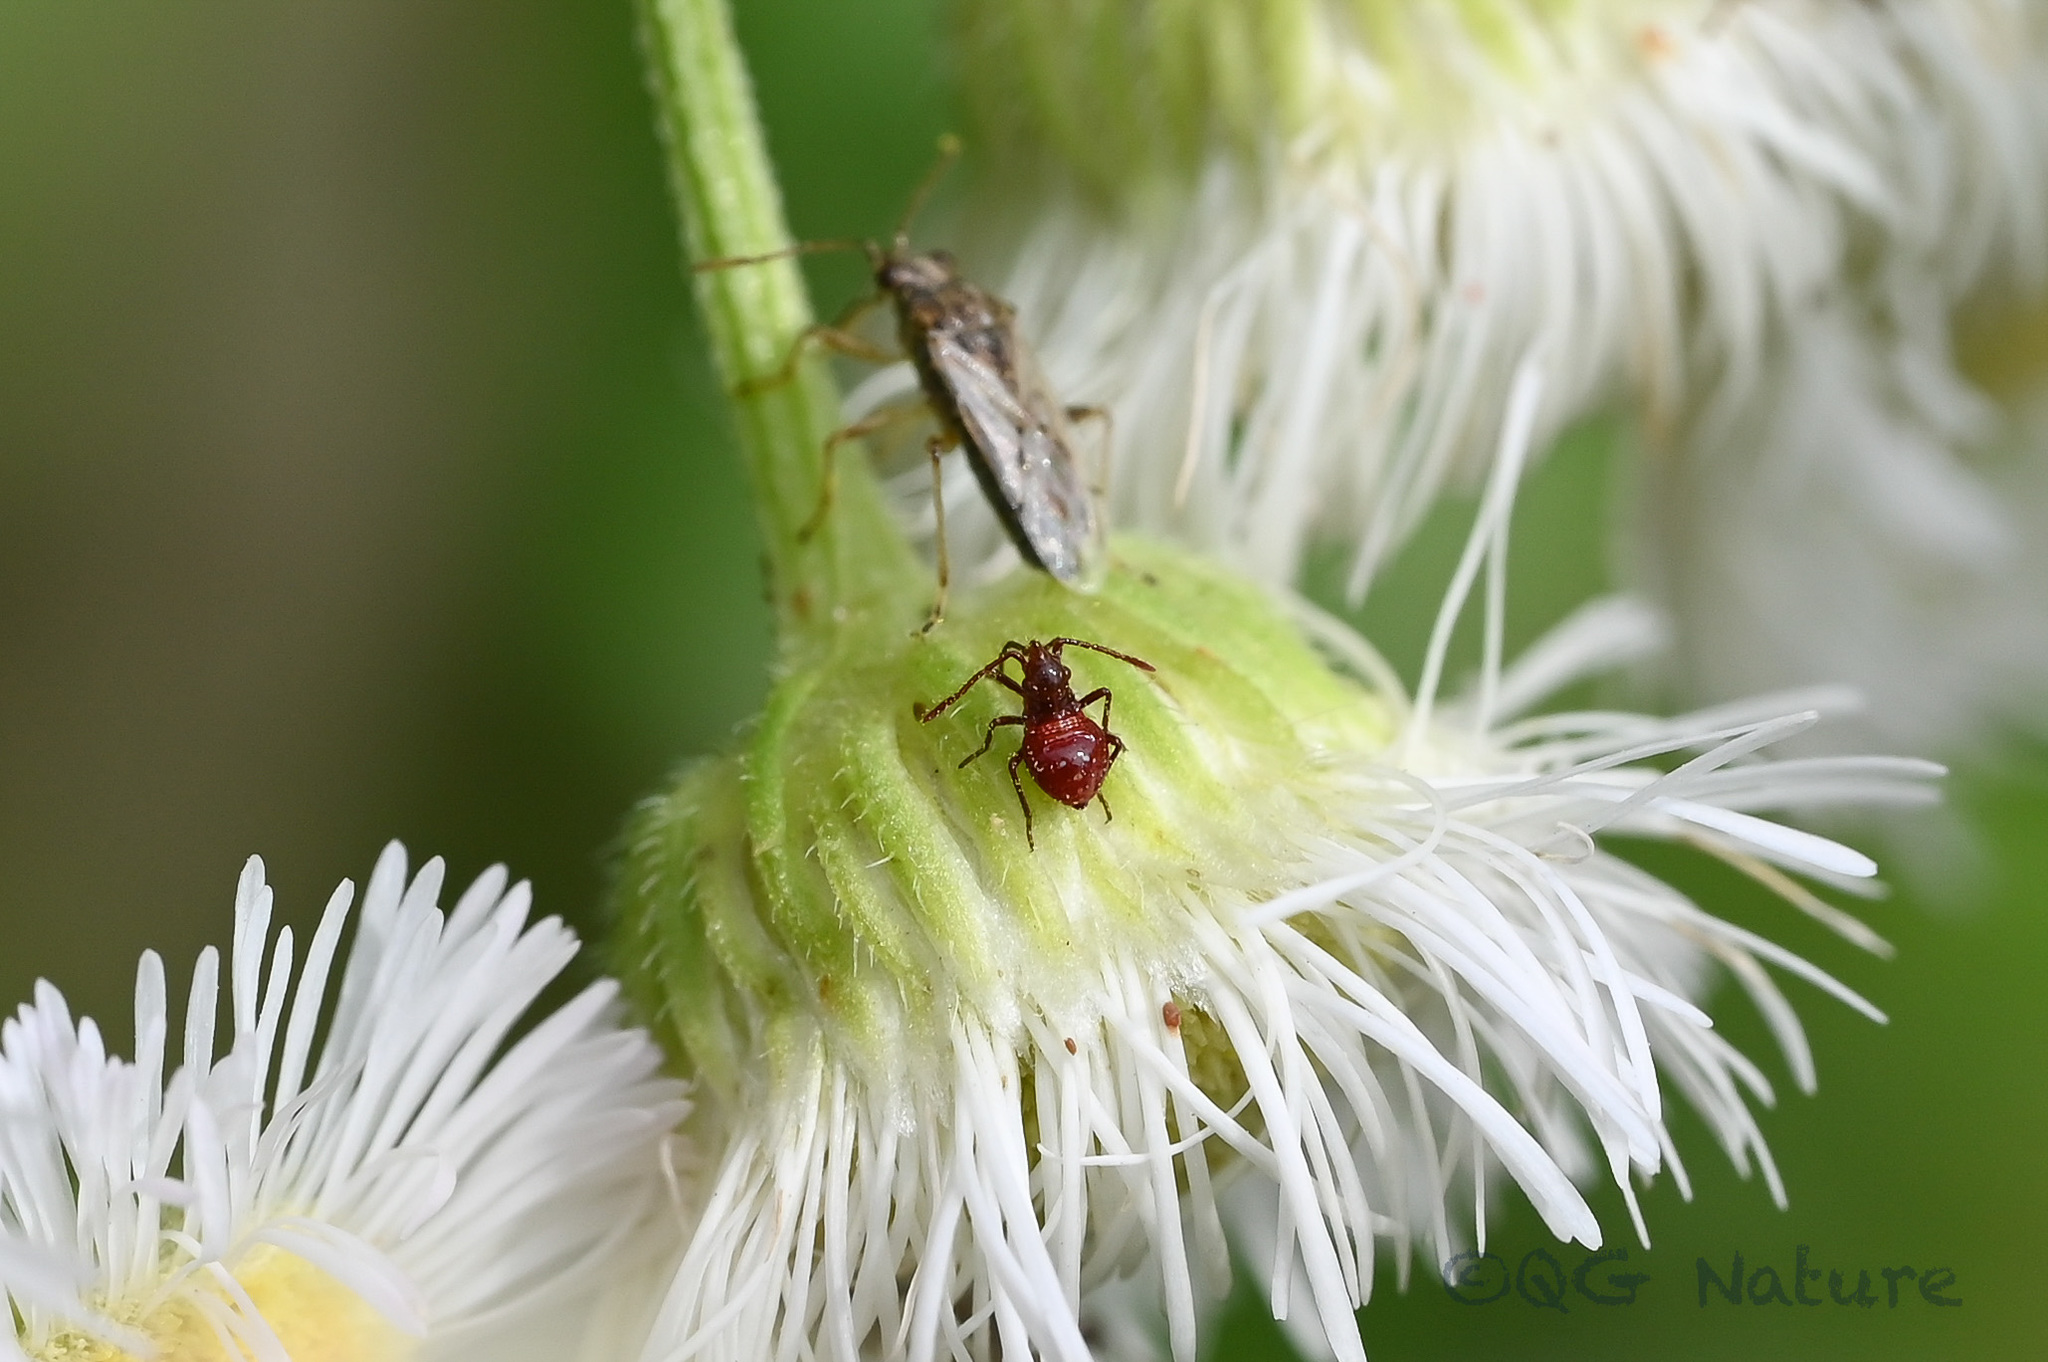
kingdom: Animalia
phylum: Arthropoda
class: Insecta
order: Hemiptera
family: Rhopalidae
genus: Liorhyssus
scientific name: Liorhyssus hyalinus
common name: Scentless plant bug
